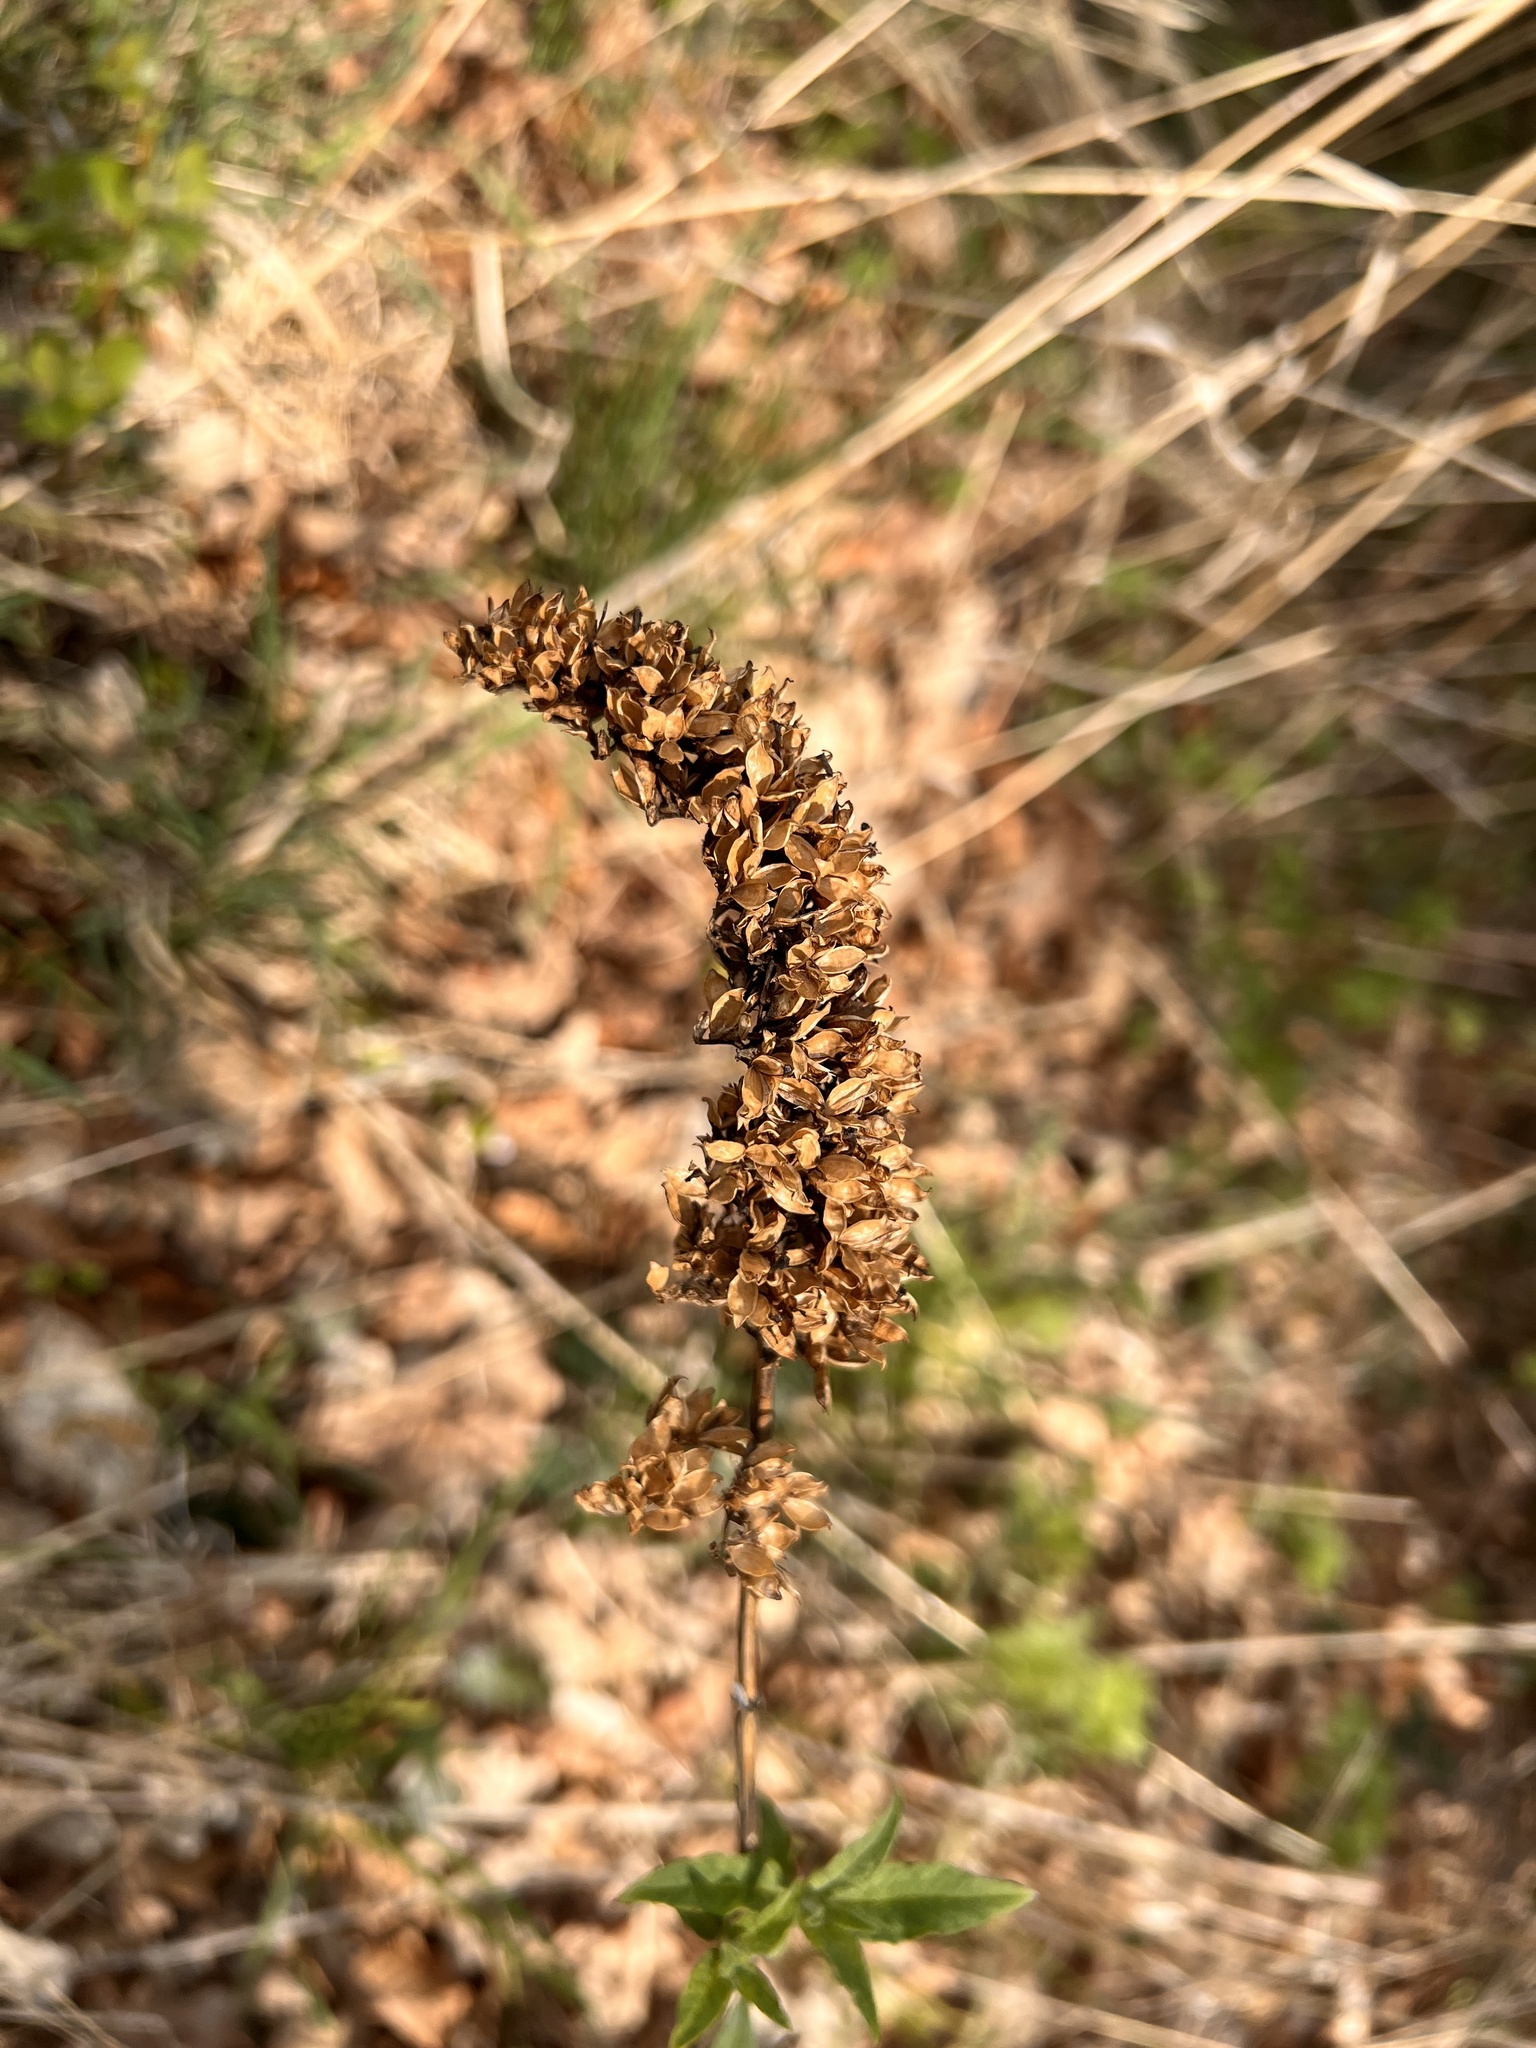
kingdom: Plantae
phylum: Tracheophyta
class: Magnoliopsida
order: Lamiales
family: Scrophulariaceae
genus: Buddleja
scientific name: Buddleja davidii
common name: Butterfly-bush
